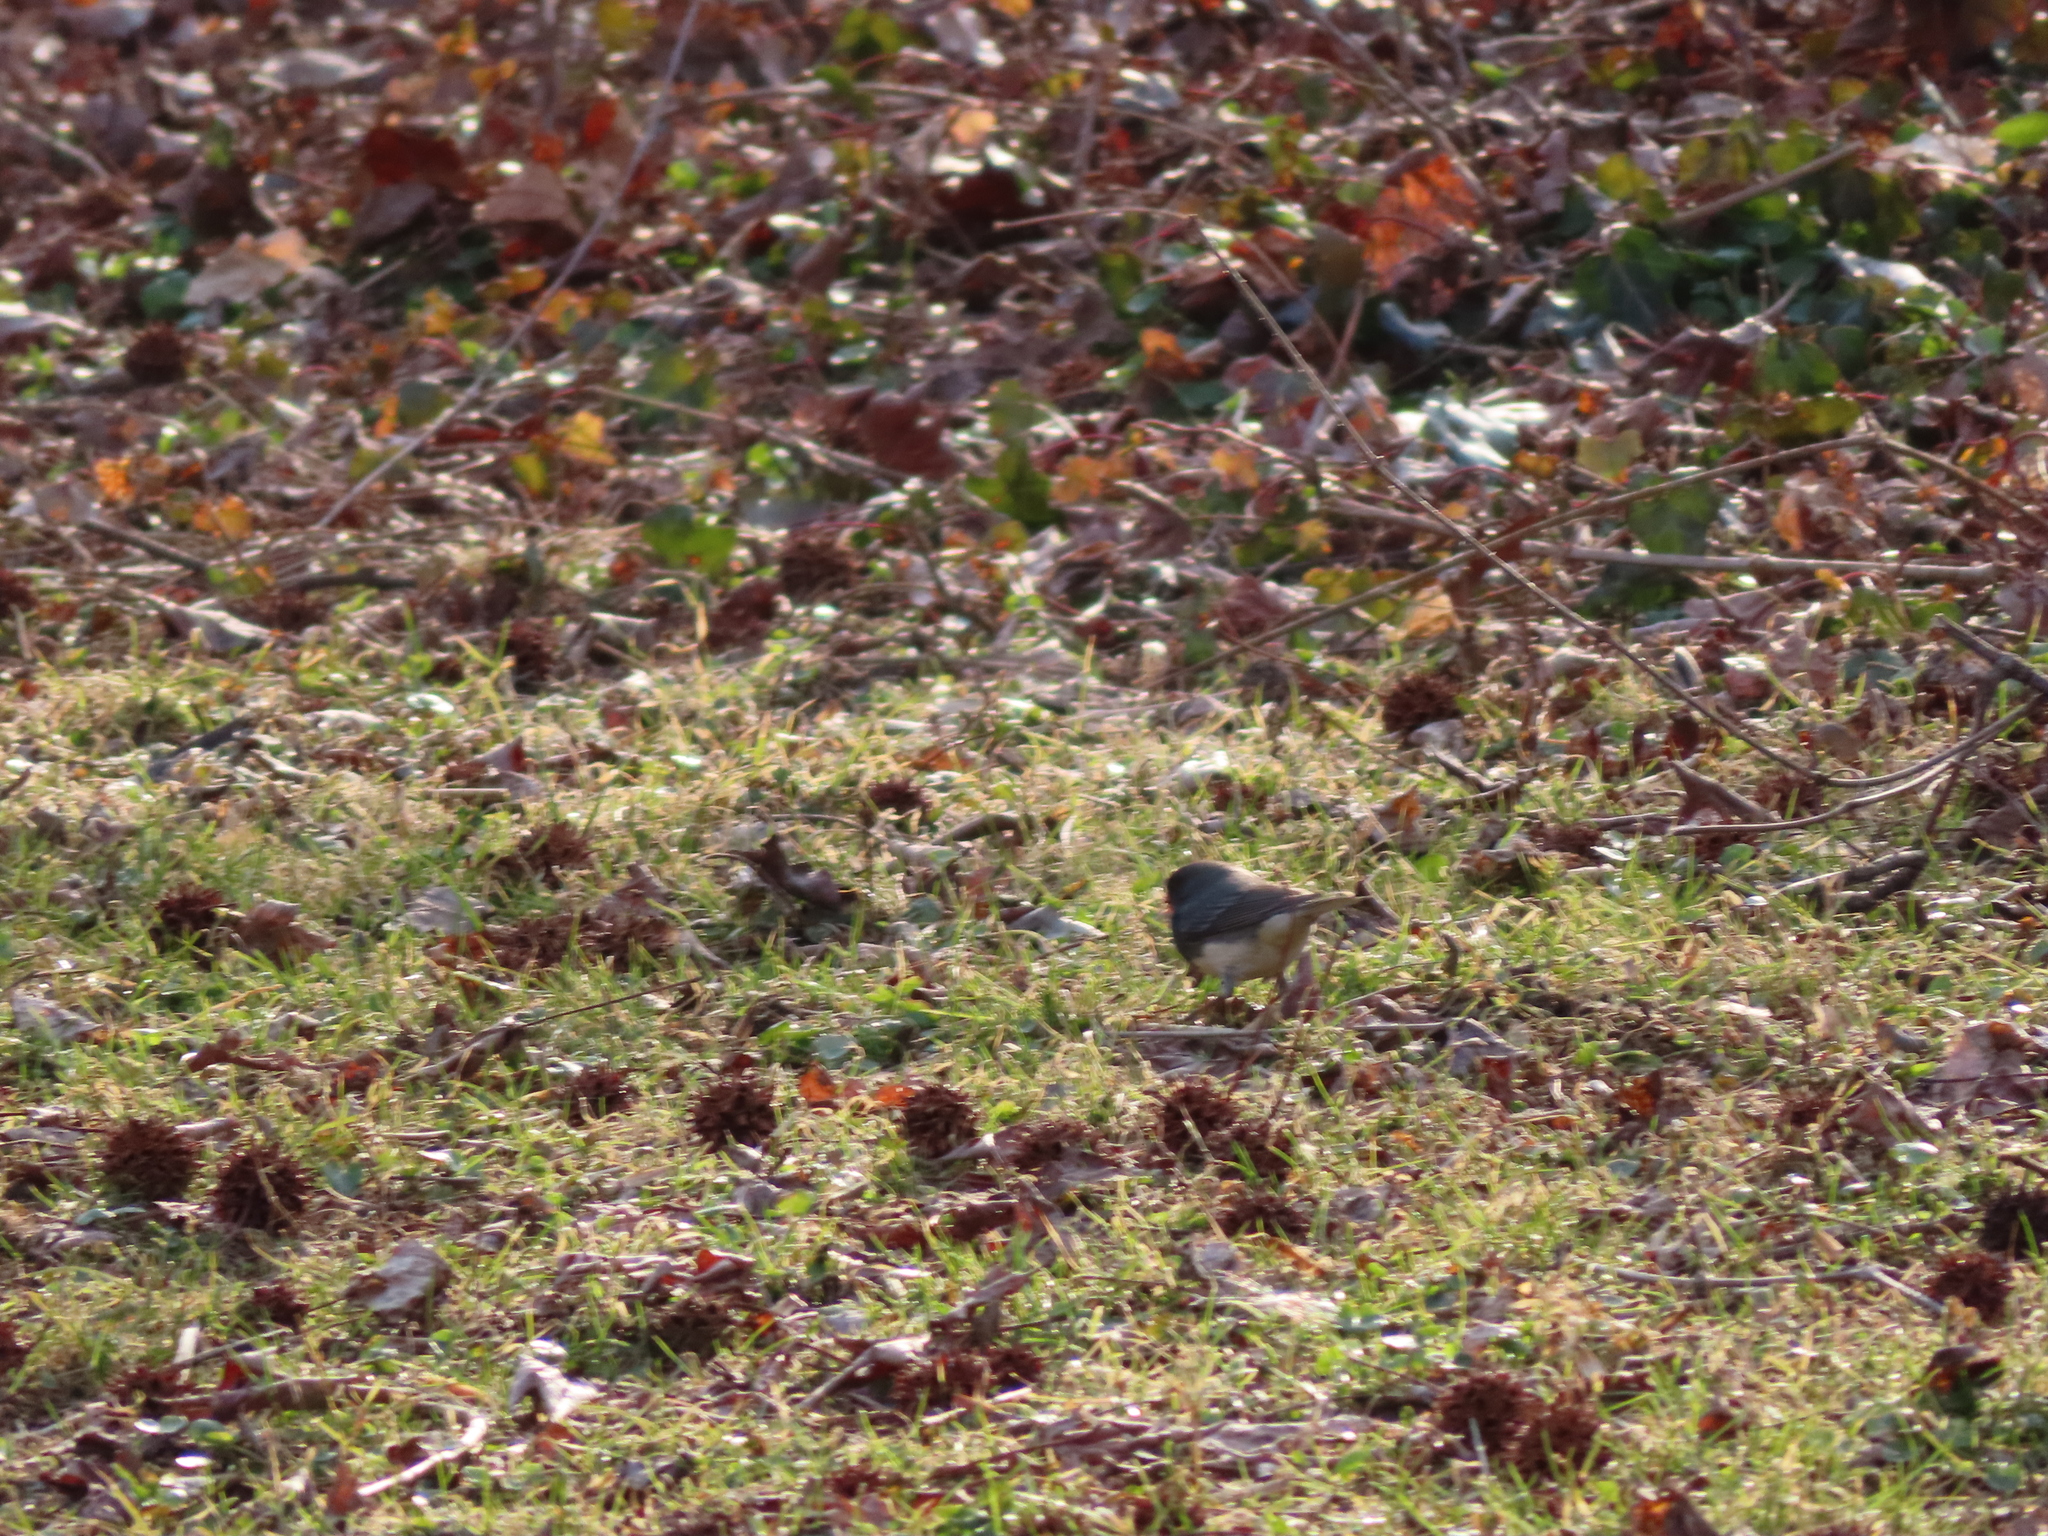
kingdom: Animalia
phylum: Chordata
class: Aves
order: Passeriformes
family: Passerellidae
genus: Junco
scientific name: Junco hyemalis
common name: Dark-eyed junco
